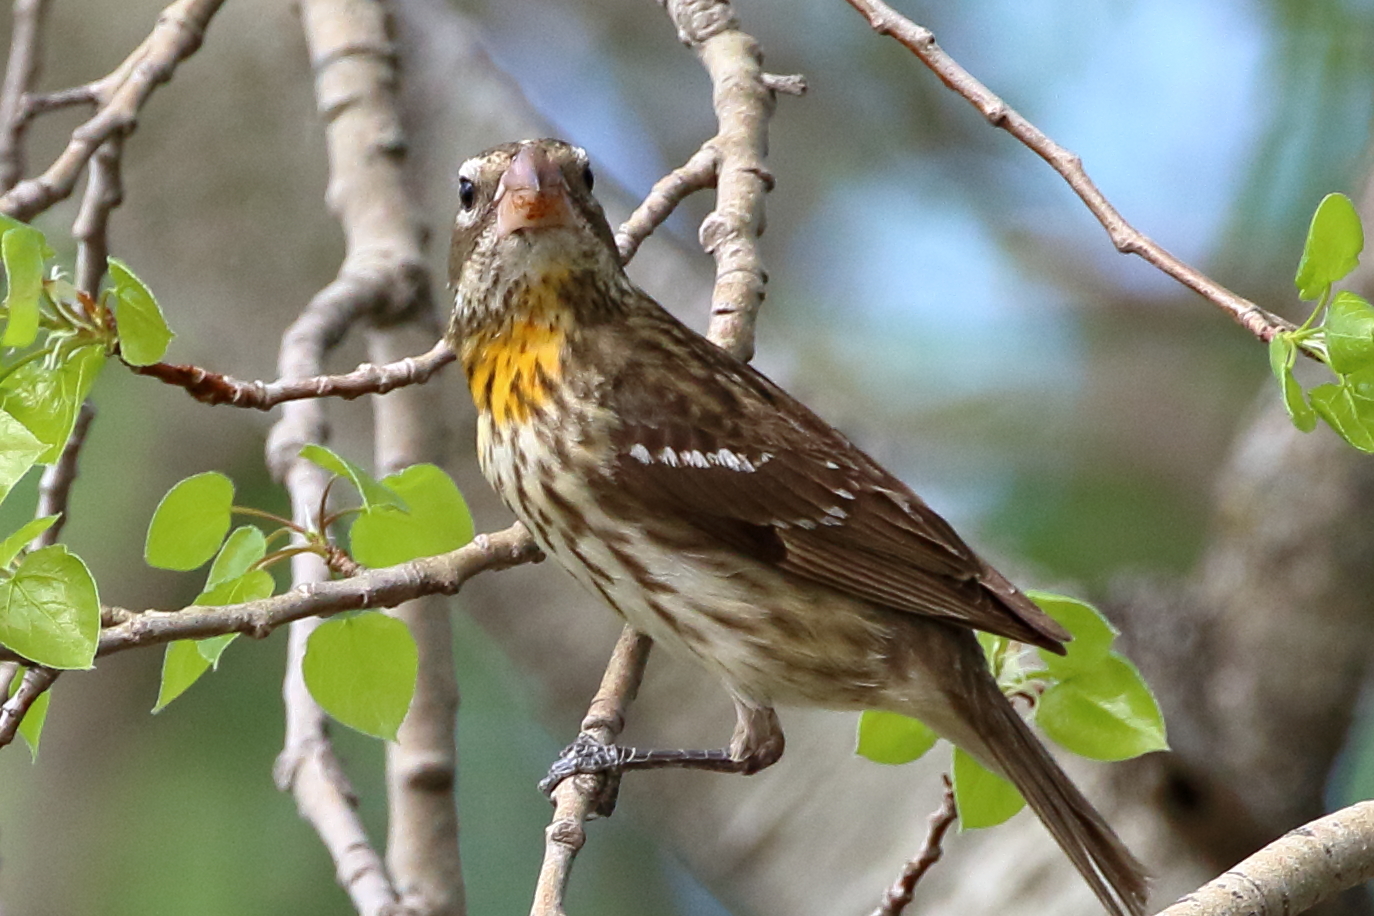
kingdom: Animalia
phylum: Chordata
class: Aves
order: Passeriformes
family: Cardinalidae
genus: Pheucticus
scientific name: Pheucticus ludovicianus
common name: Rose-breasted grosbeak
